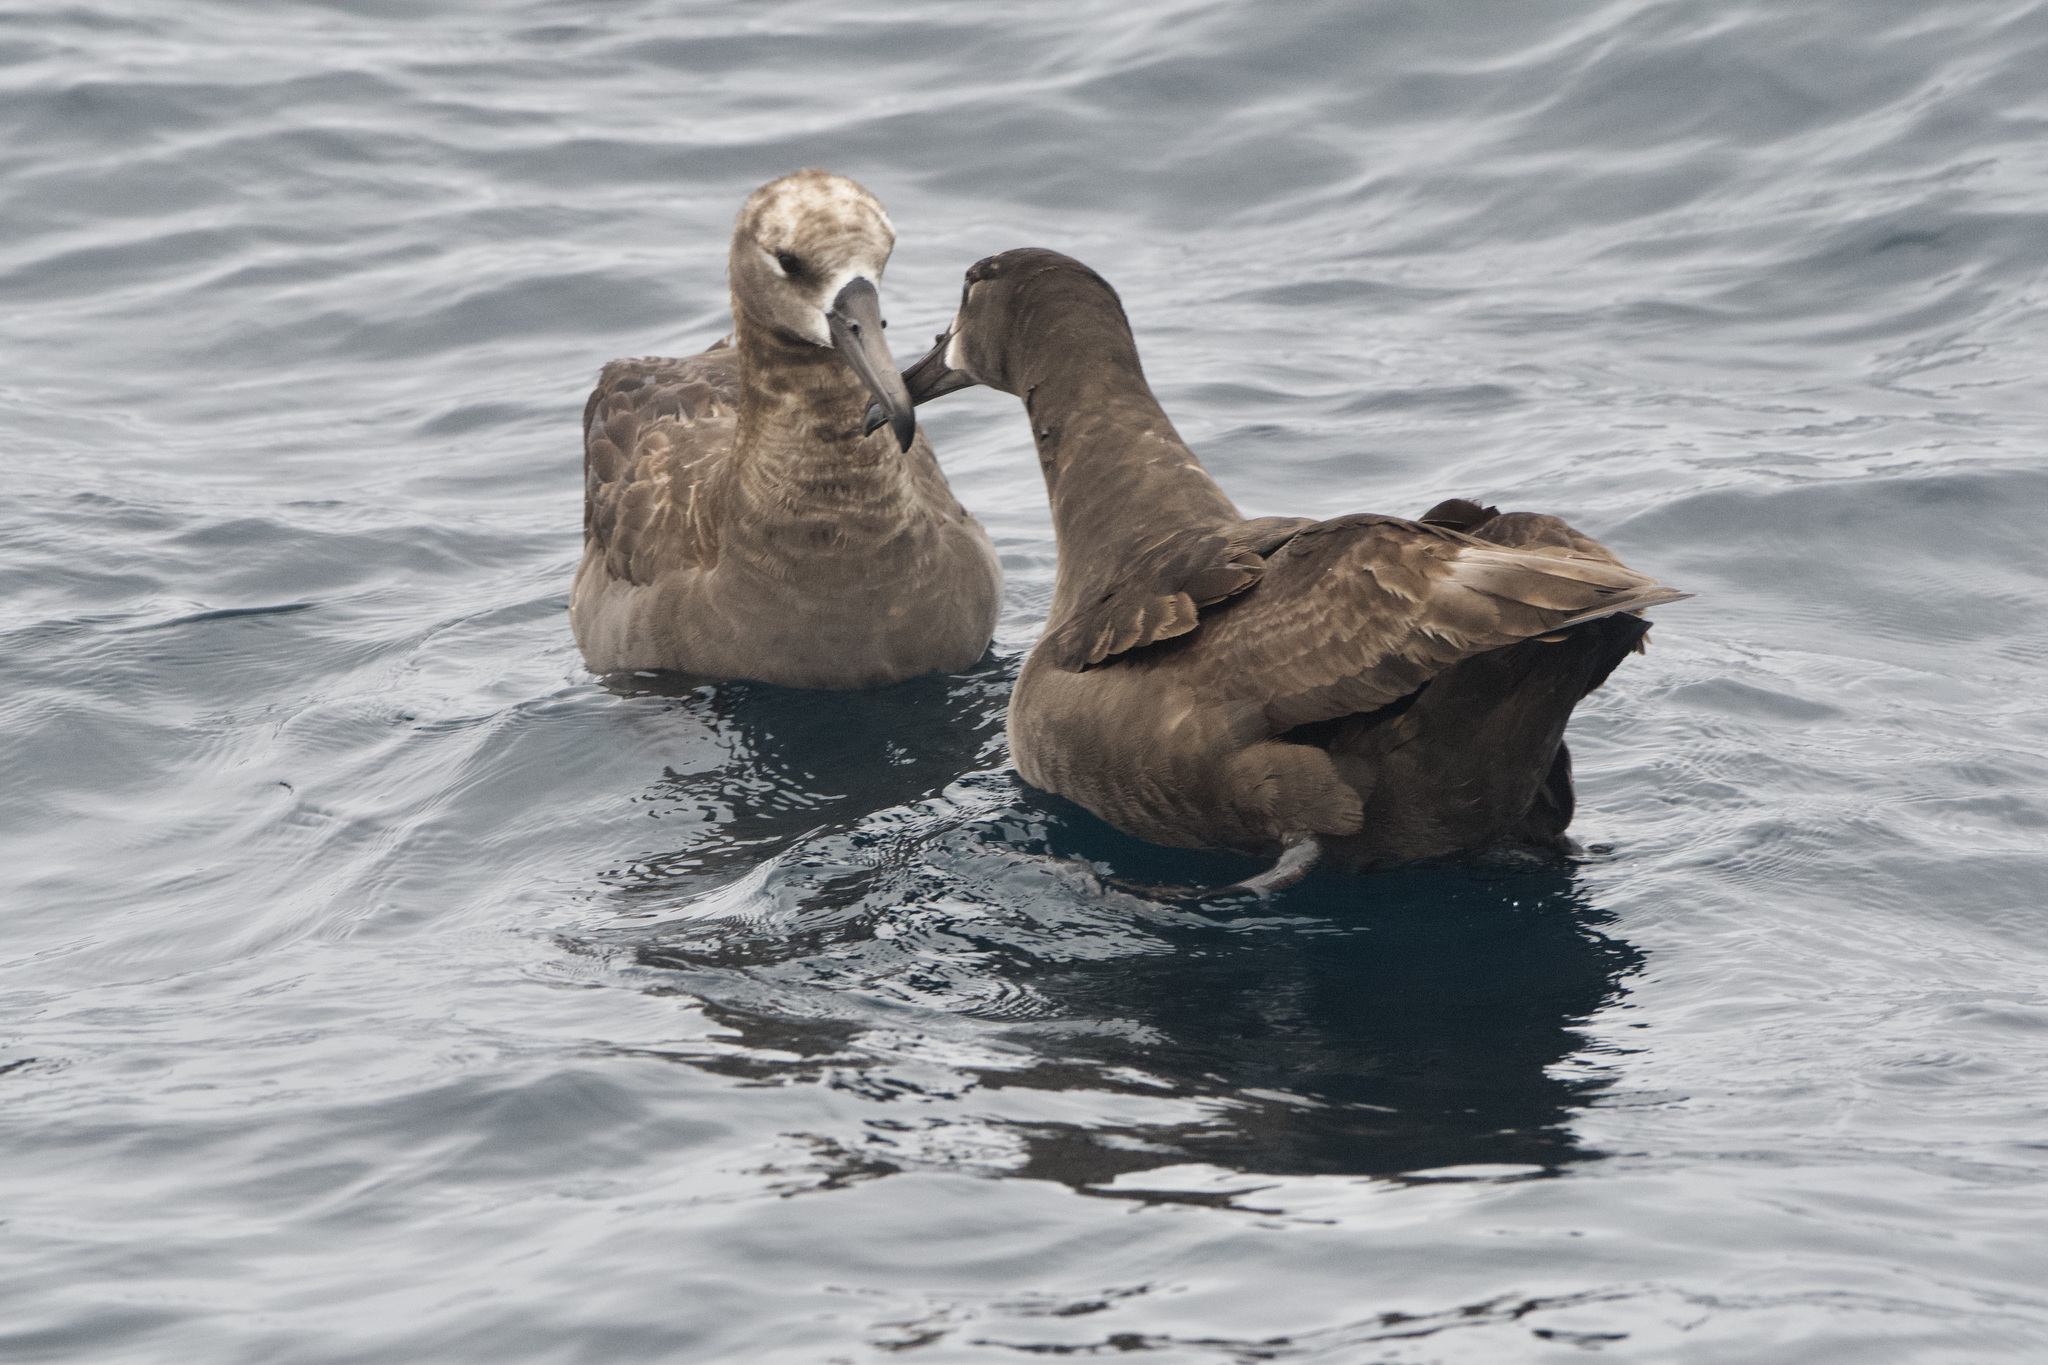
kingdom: Animalia
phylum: Chordata
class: Aves
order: Procellariiformes
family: Diomedeidae
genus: Phoebastria
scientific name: Phoebastria nigripes
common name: Black-footed albatross
